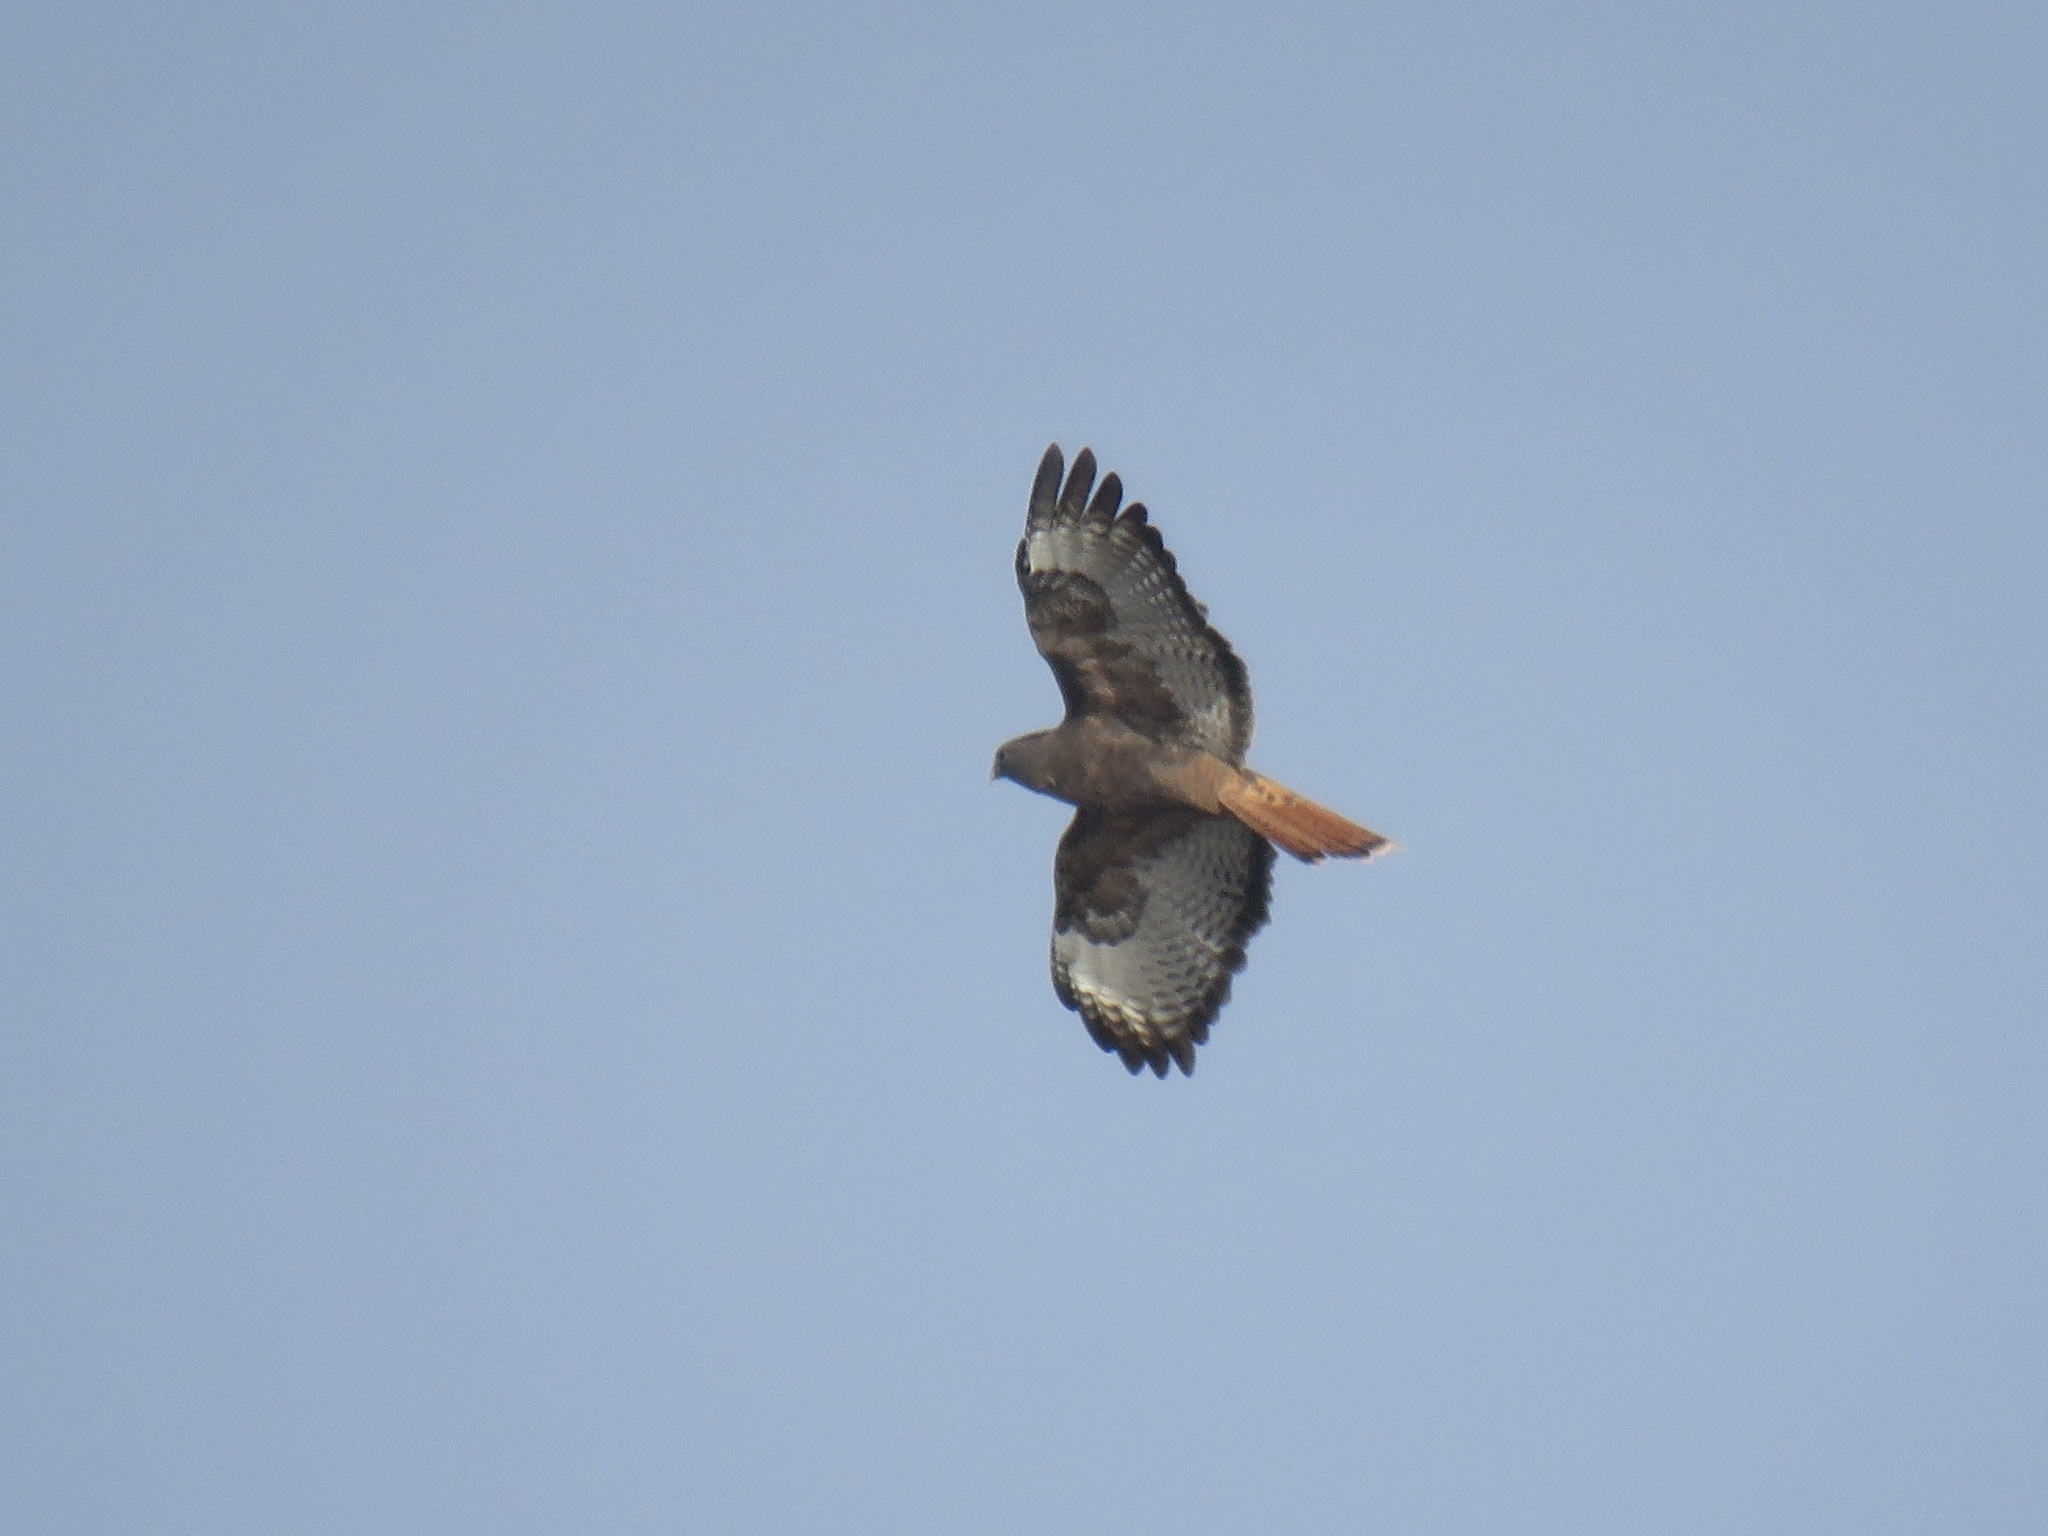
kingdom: Animalia
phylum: Chordata
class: Aves
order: Accipitriformes
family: Accipitridae
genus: Buteo
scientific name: Buteo jamaicensis
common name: Red-tailed hawk
